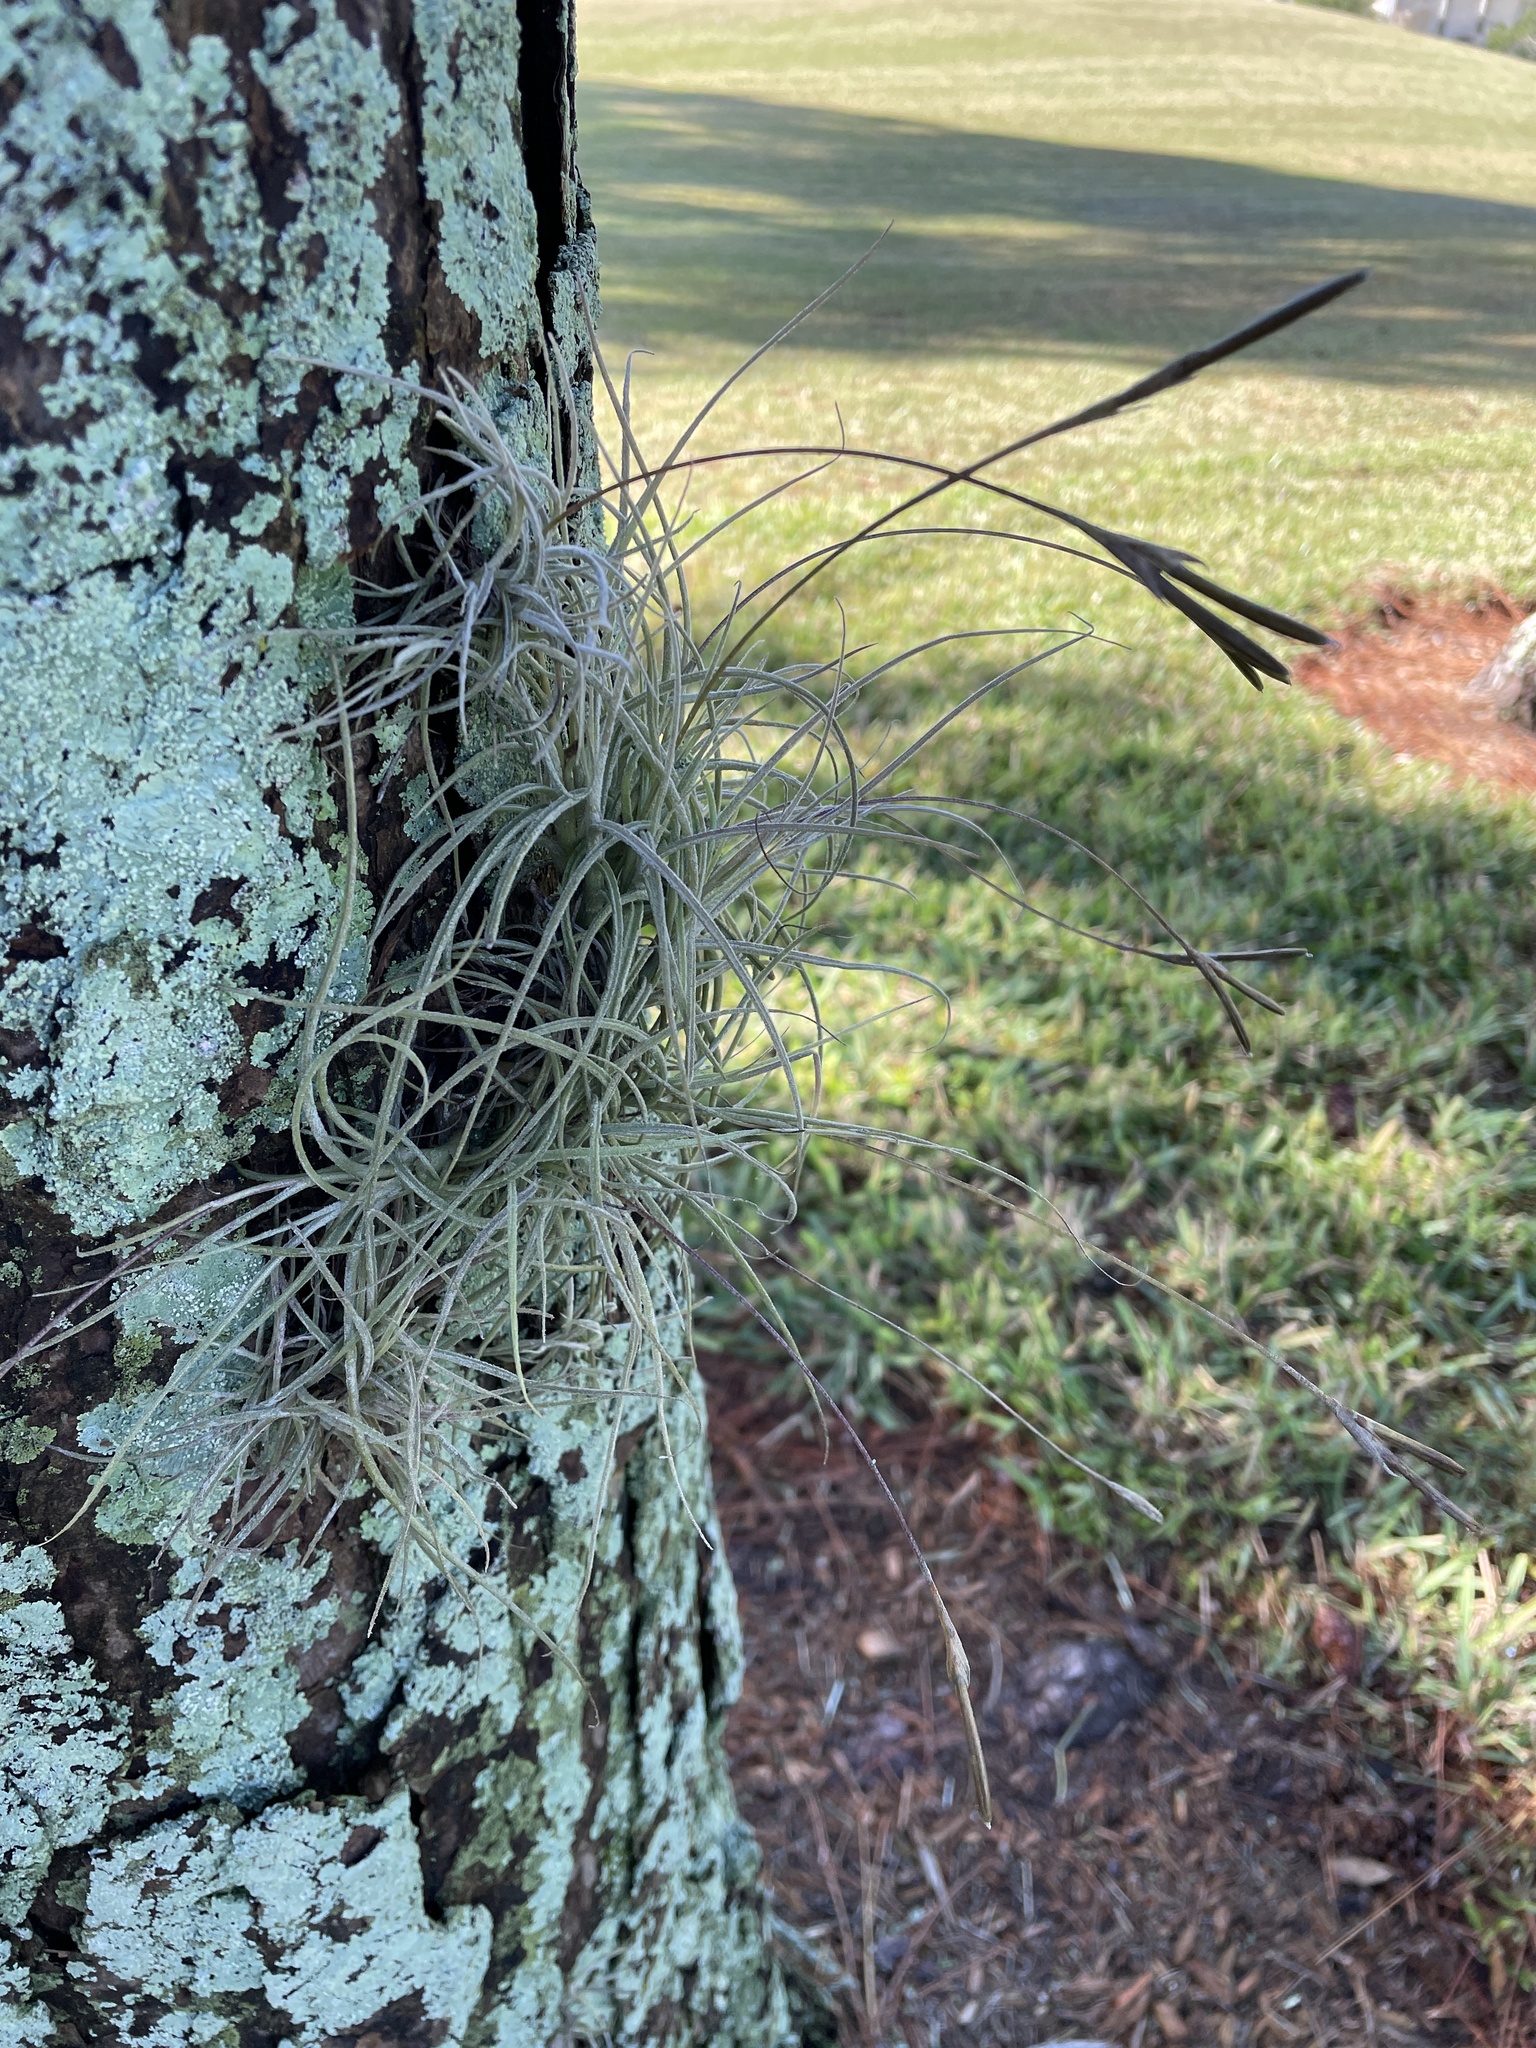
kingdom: Plantae
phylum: Tracheophyta
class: Liliopsida
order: Poales
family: Bromeliaceae
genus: Tillandsia
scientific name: Tillandsia recurvata
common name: Small ballmoss
